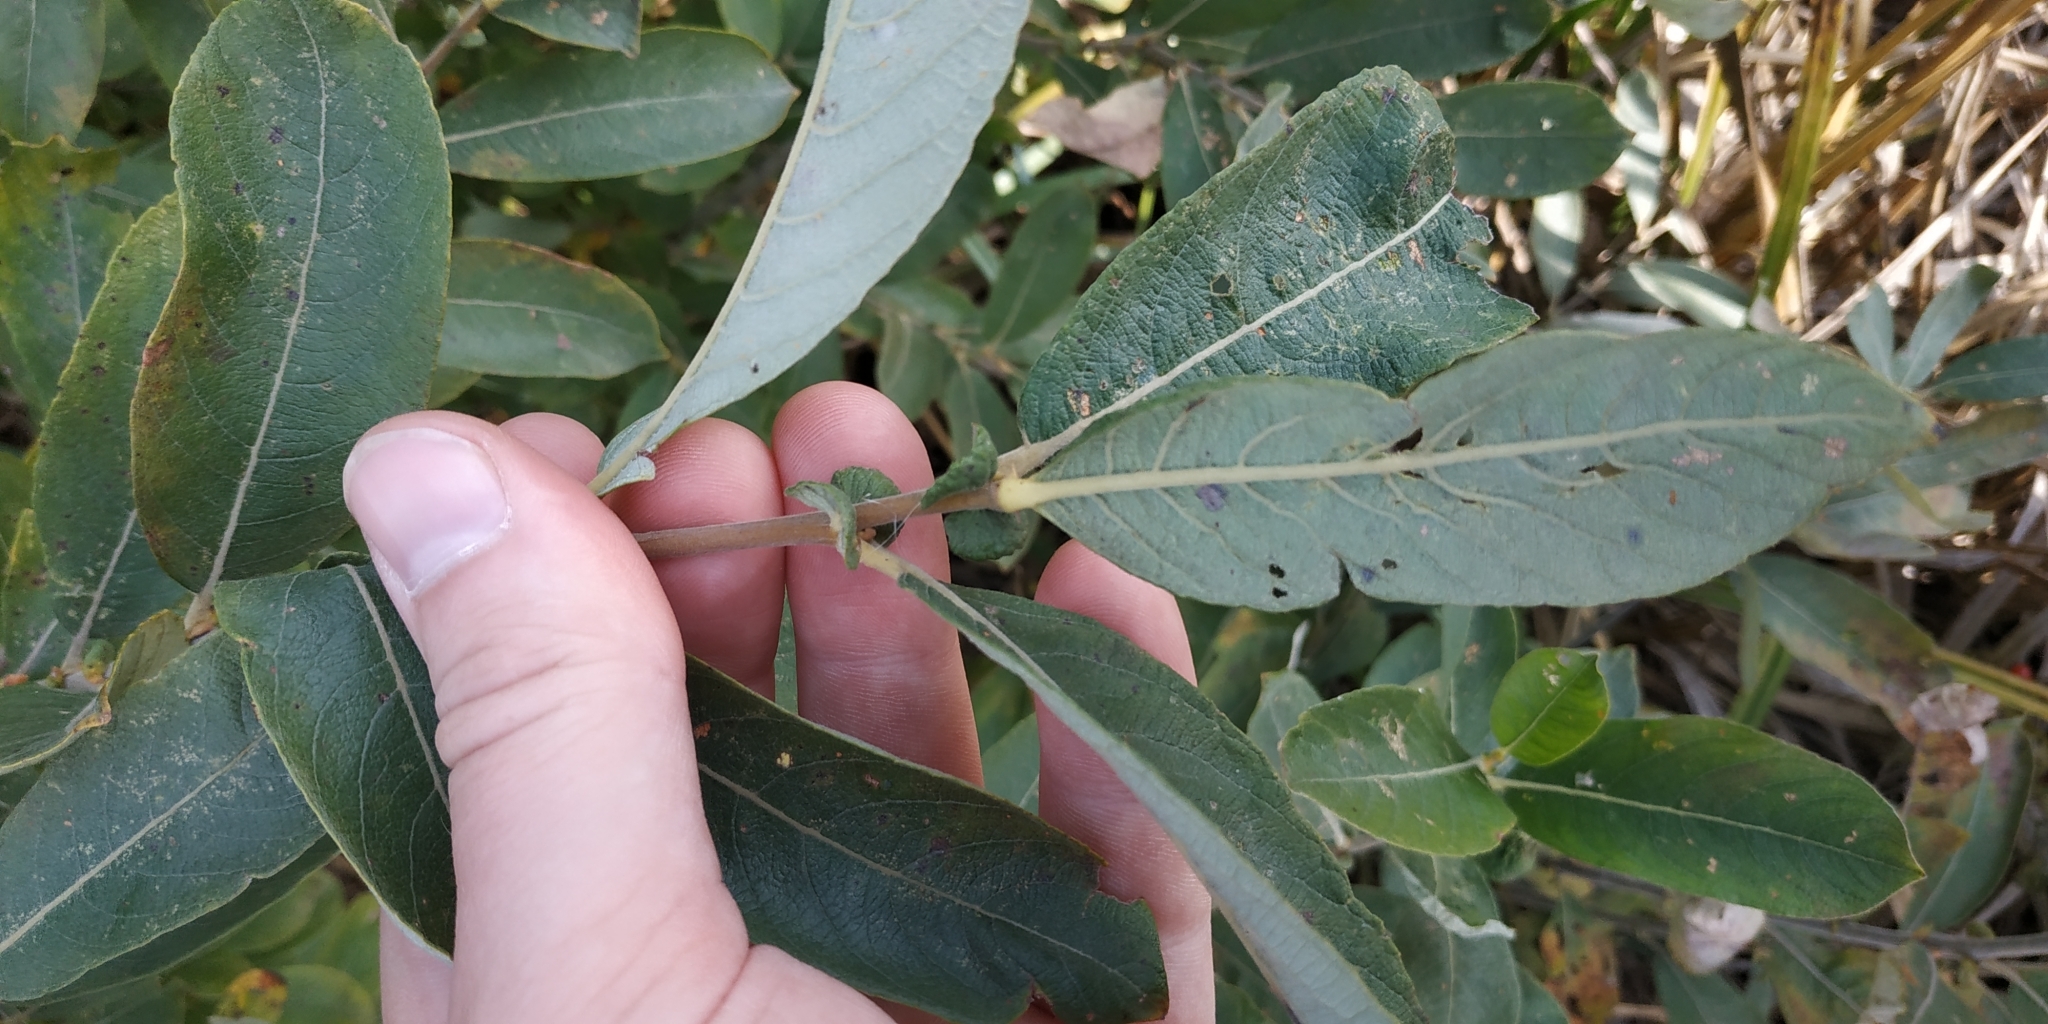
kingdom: Plantae
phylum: Tracheophyta
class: Magnoliopsida
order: Malpighiales
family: Salicaceae
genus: Salix
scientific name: Salix cinerea
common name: Common sallow
